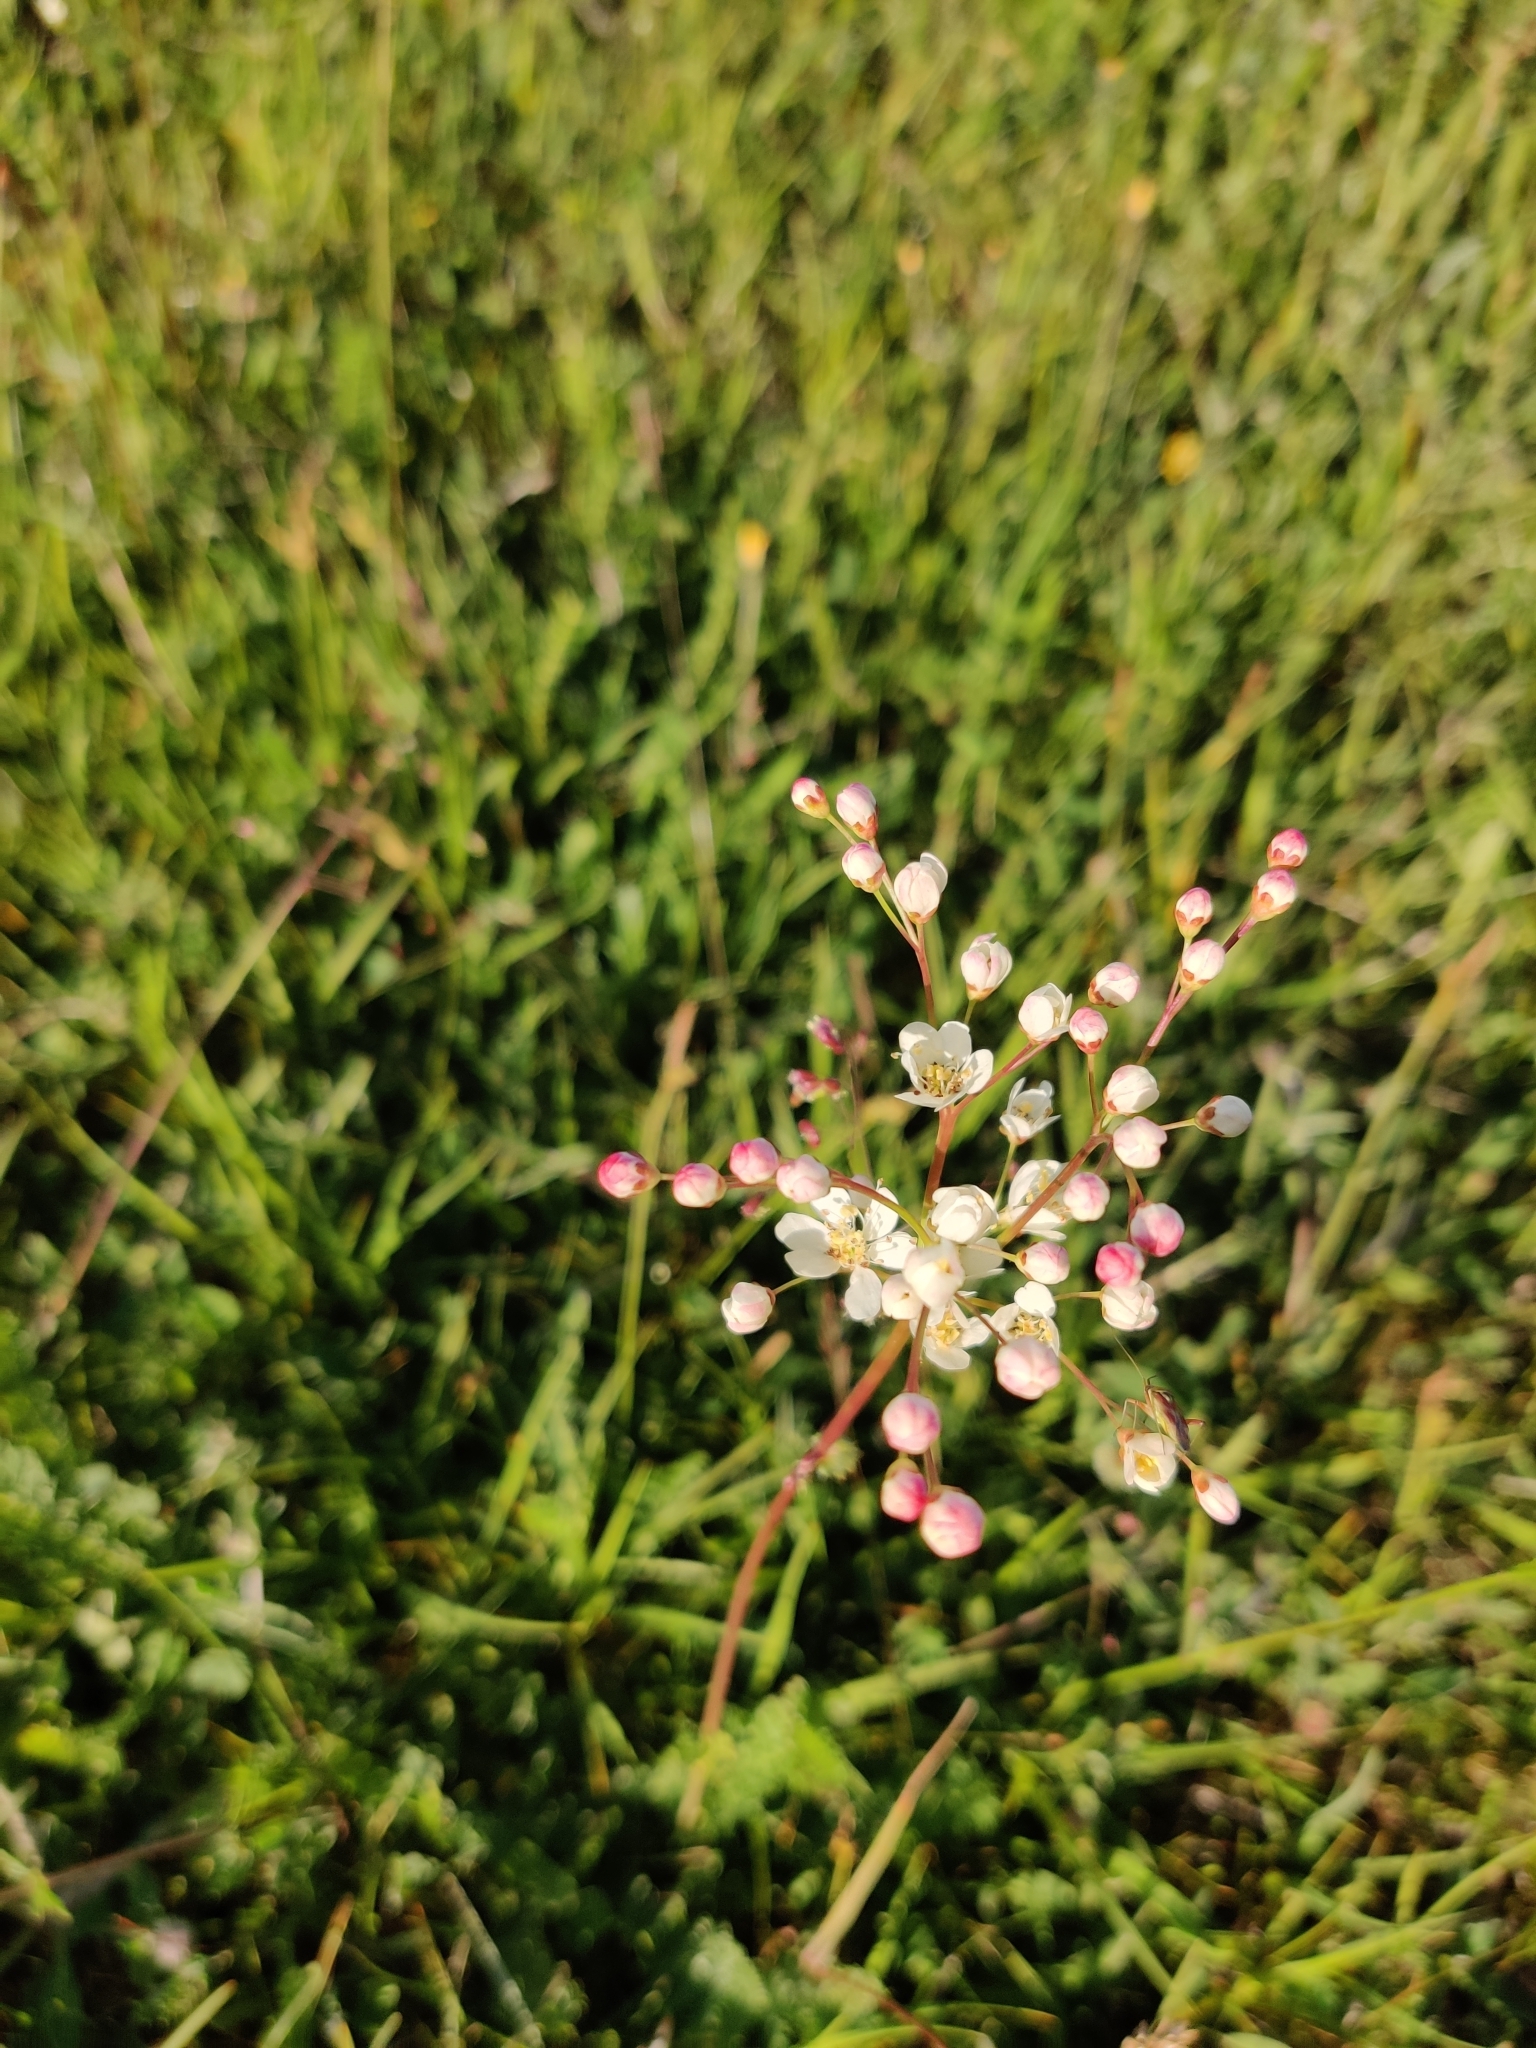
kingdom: Plantae
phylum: Tracheophyta
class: Magnoliopsida
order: Rosales
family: Rosaceae
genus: Filipendula
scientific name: Filipendula vulgaris
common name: Dropwort
